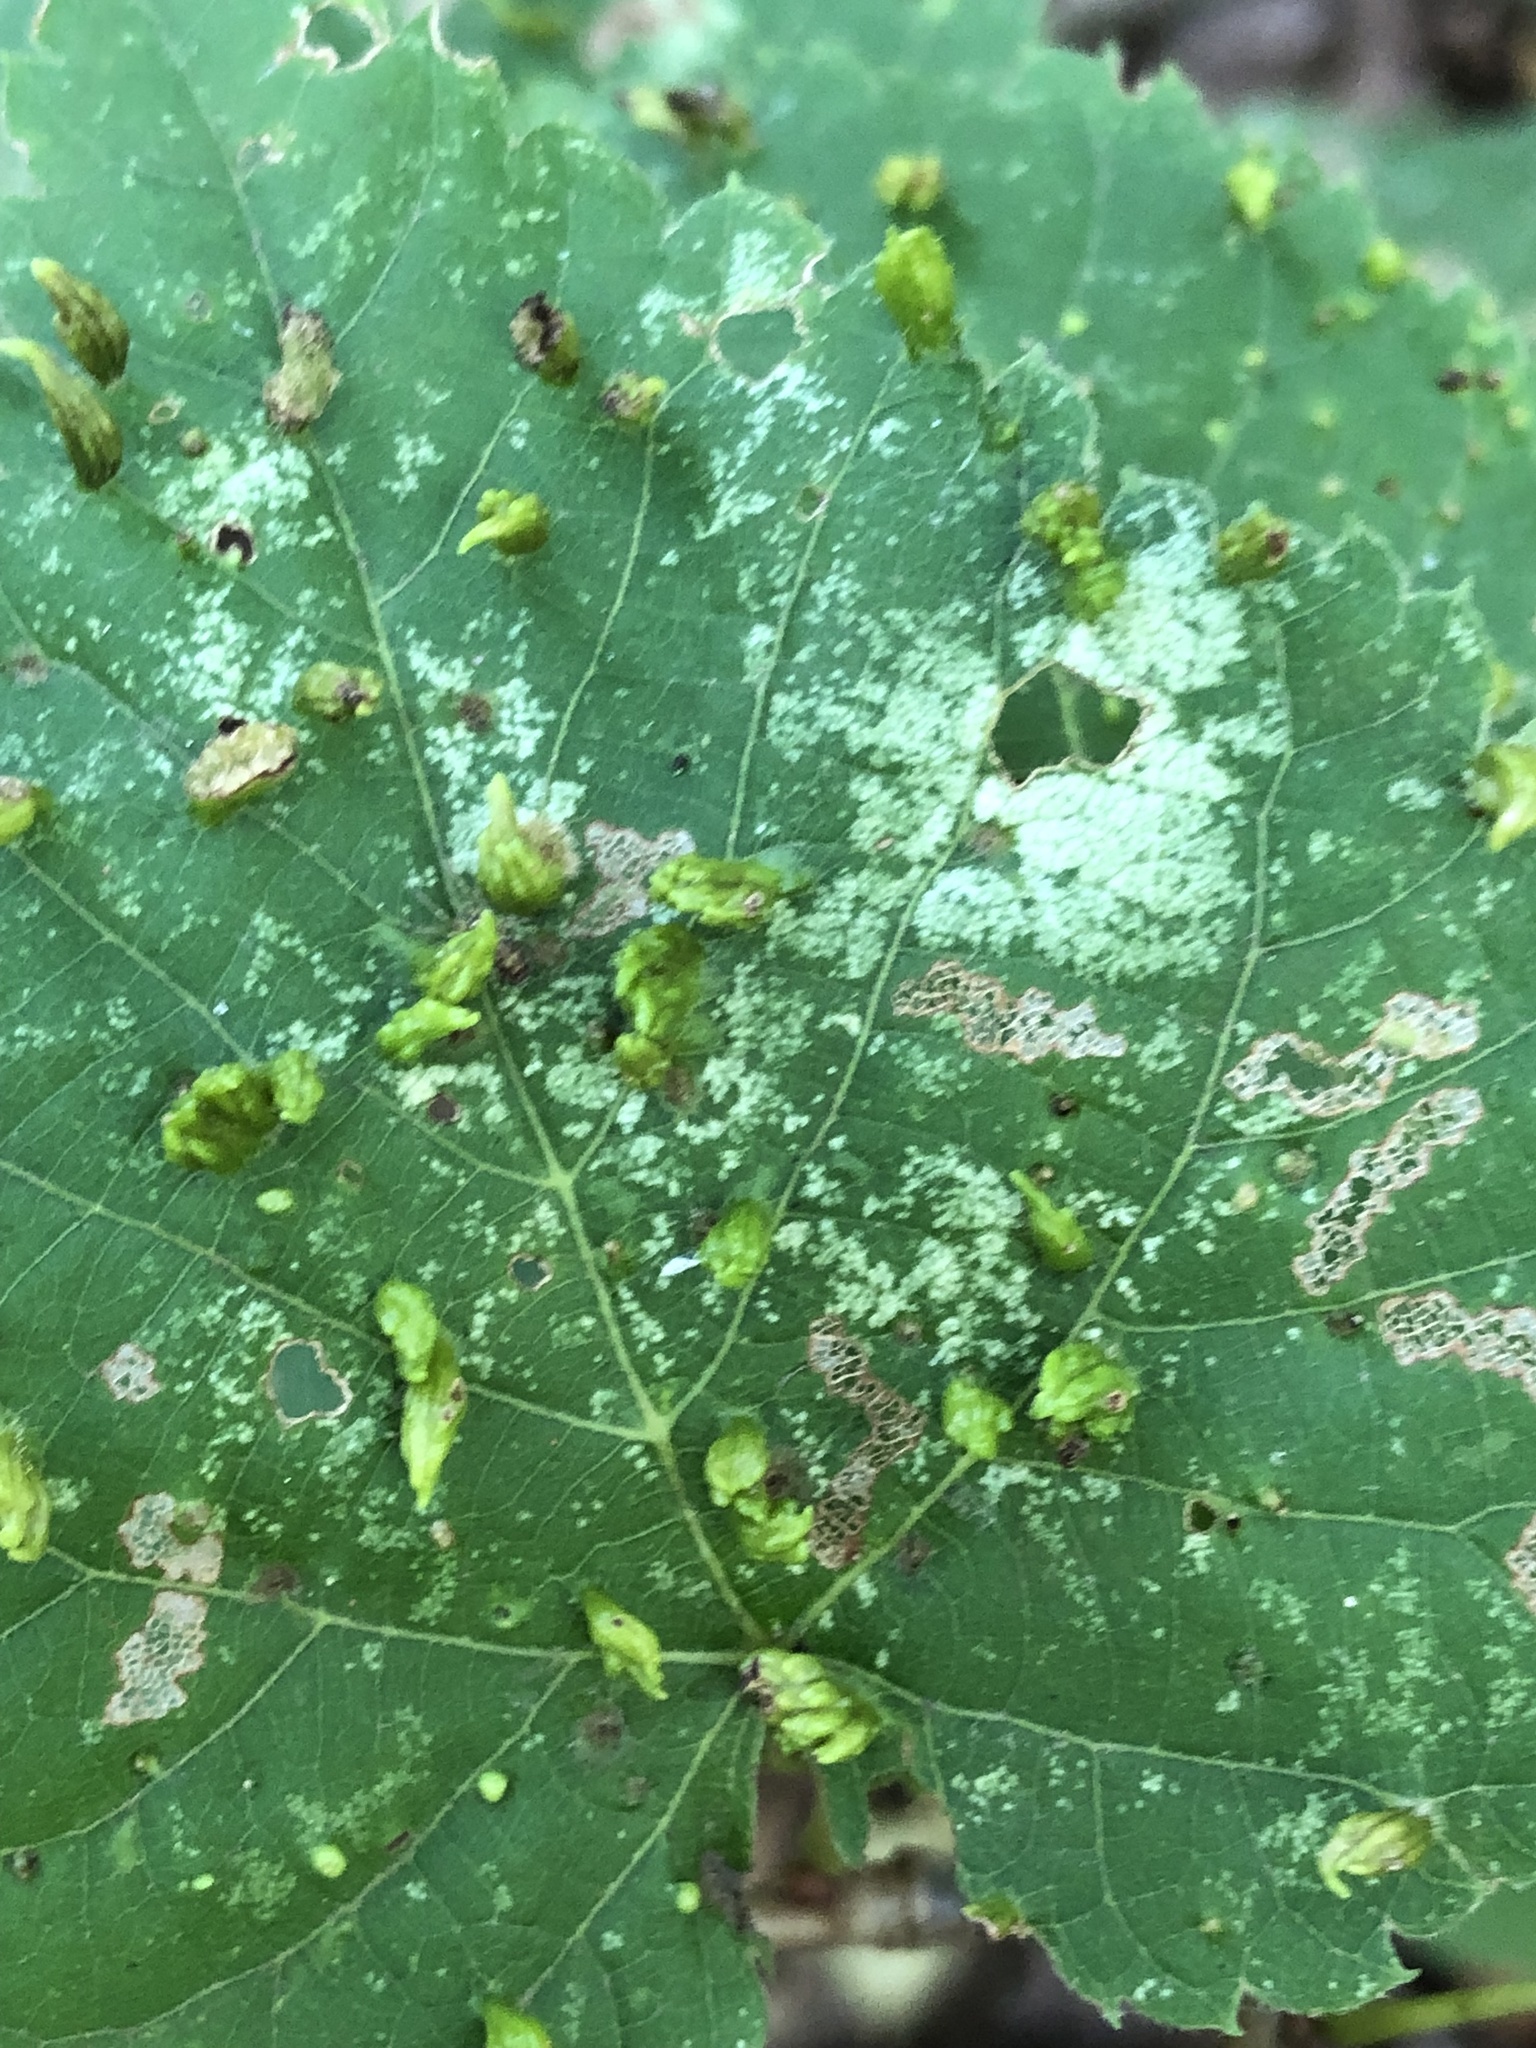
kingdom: Animalia
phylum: Arthropoda
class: Arachnida
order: Trombidiformes
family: Eriophyidae
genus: Eriophyes
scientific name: Eriophyes tiliae
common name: Red nail gall mite
